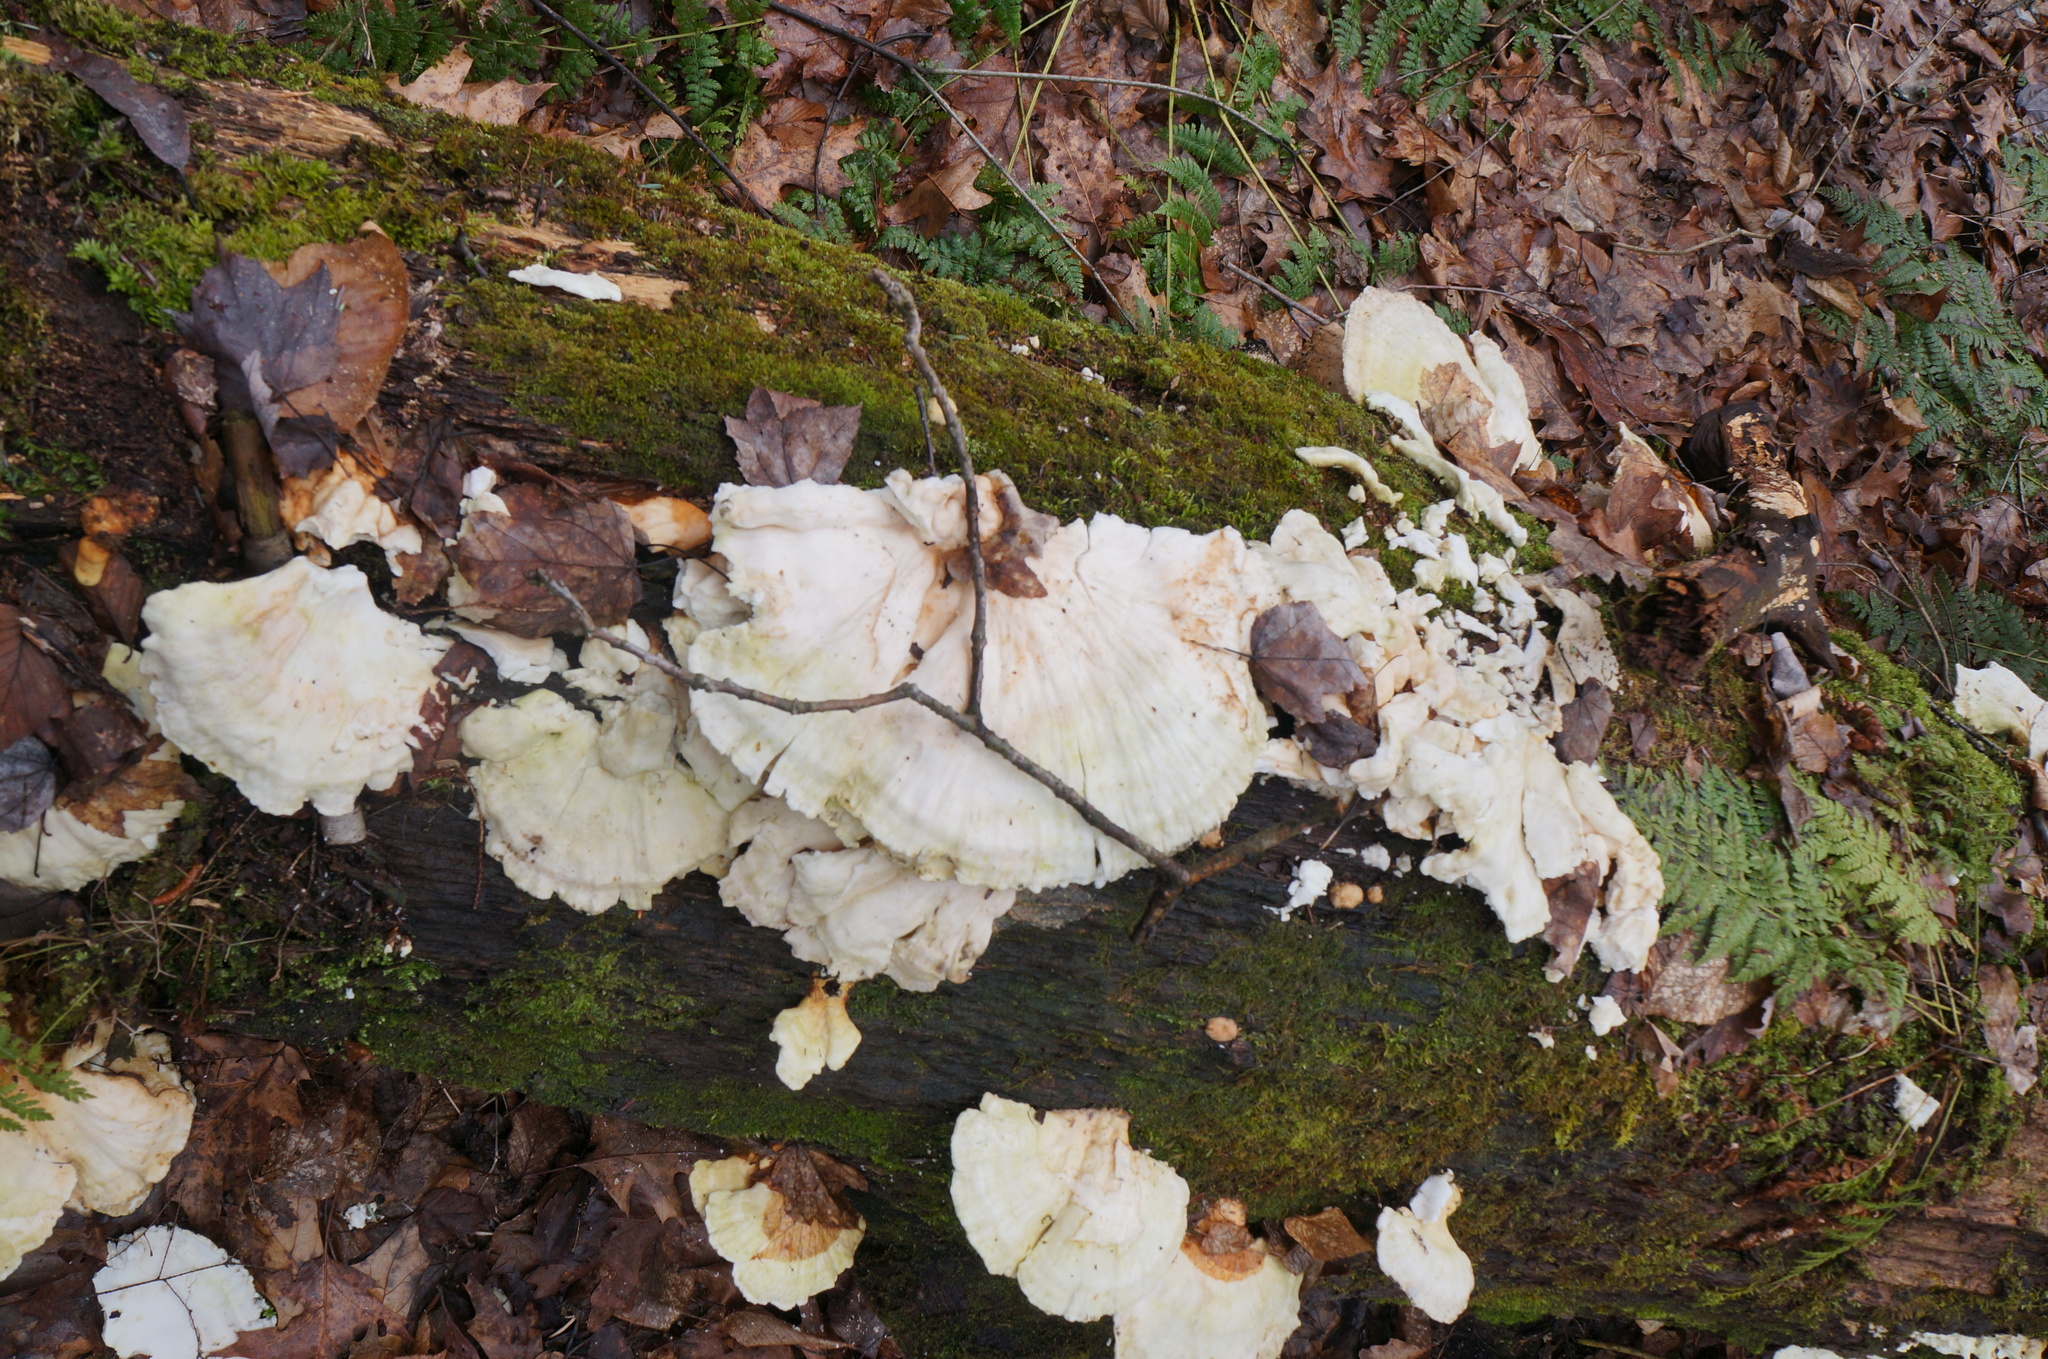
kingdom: Fungi
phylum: Basidiomycota
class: Agaricomycetes
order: Polyporales
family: Laetiporaceae
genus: Laetiporus
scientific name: Laetiporus sulphureus
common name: Chicken of the woods
